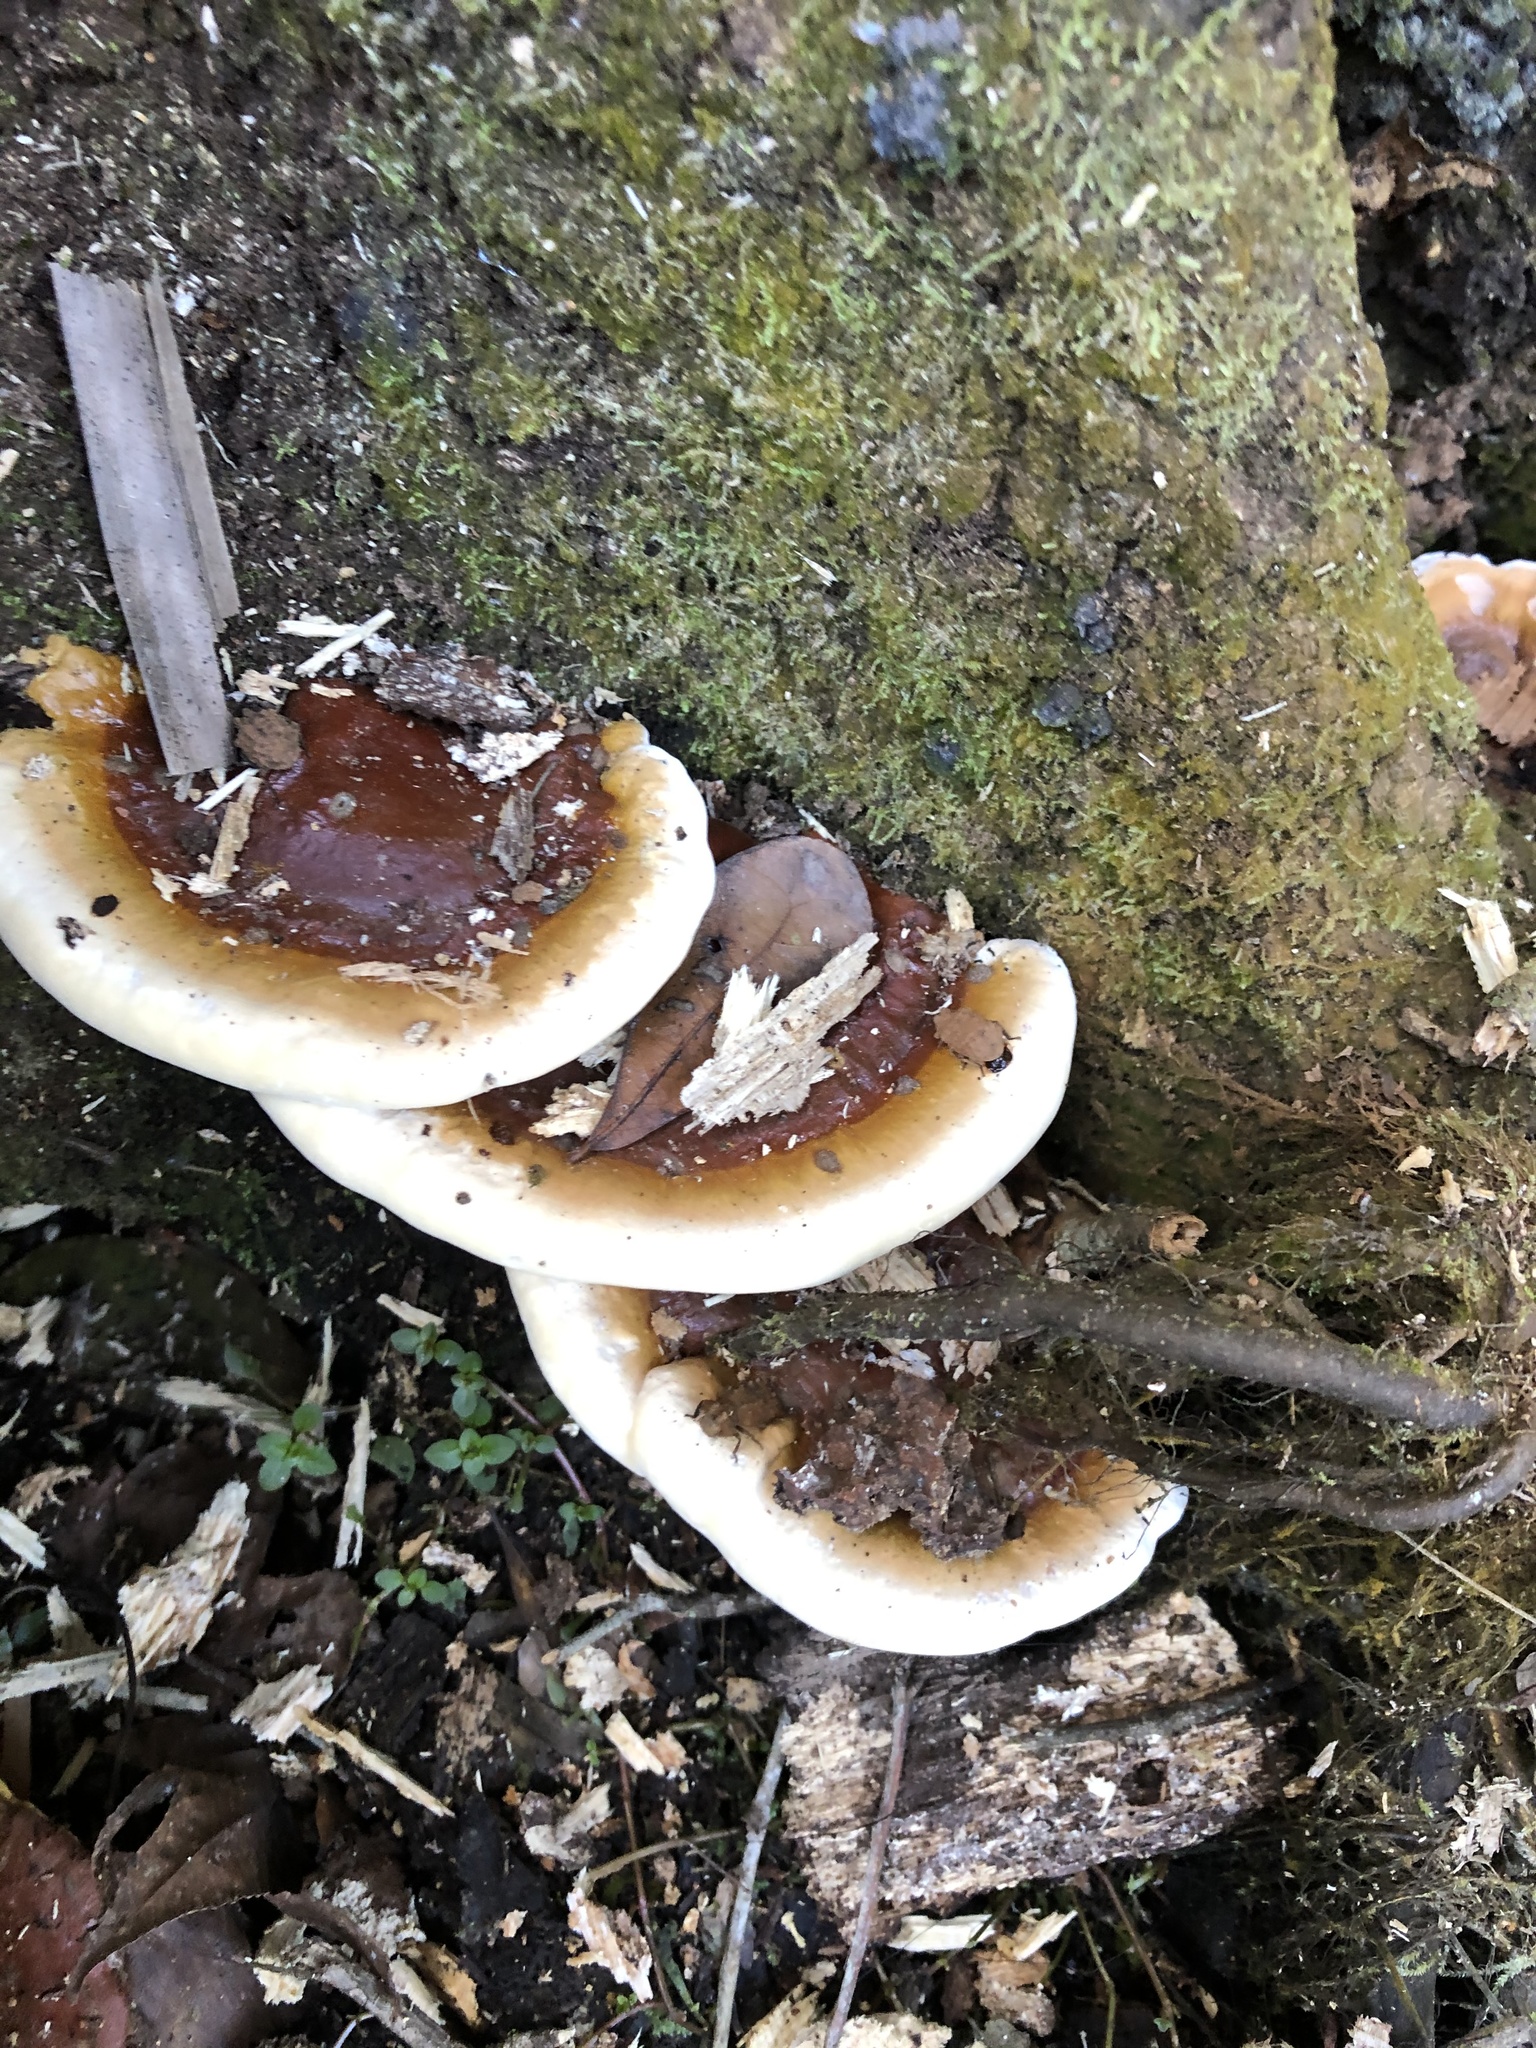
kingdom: Fungi
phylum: Basidiomycota
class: Agaricomycetes
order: Polyporales
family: Polyporaceae
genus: Ganoderma
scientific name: Ganoderma resinaceum
